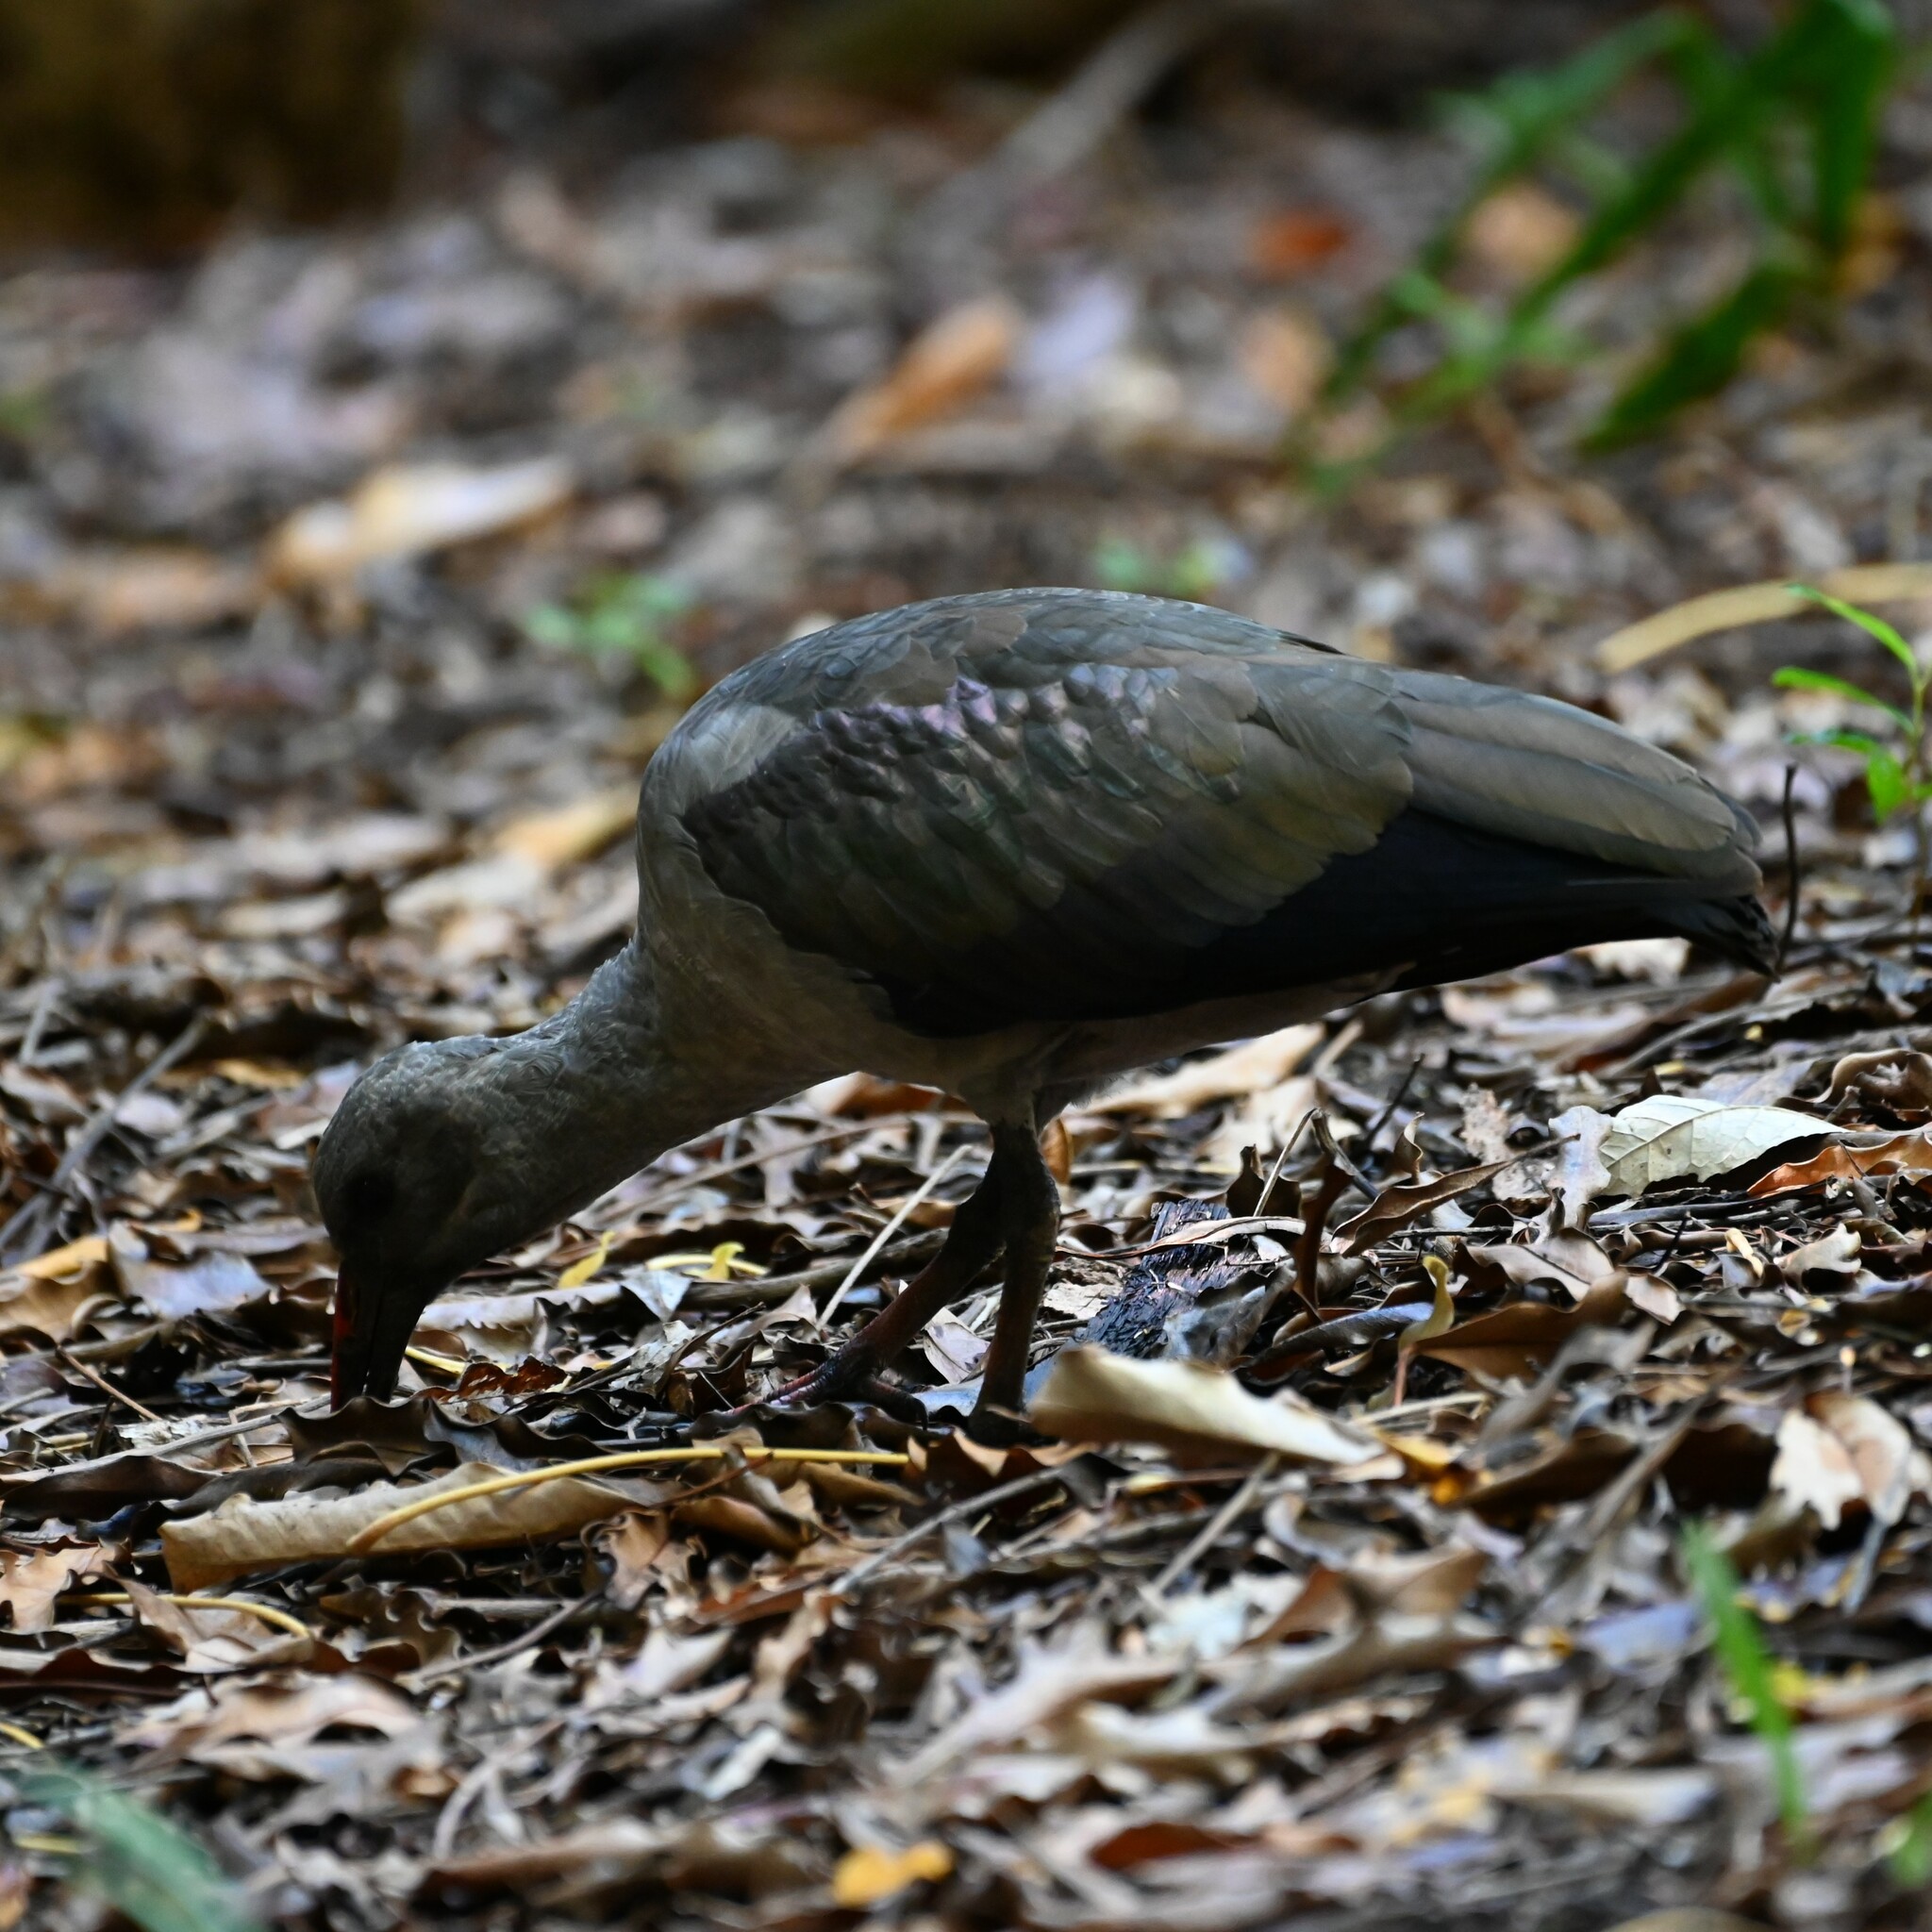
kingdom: Animalia
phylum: Chordata
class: Aves
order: Pelecaniformes
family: Threskiornithidae
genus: Bostrychia
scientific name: Bostrychia hagedash
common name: Hadada ibis
